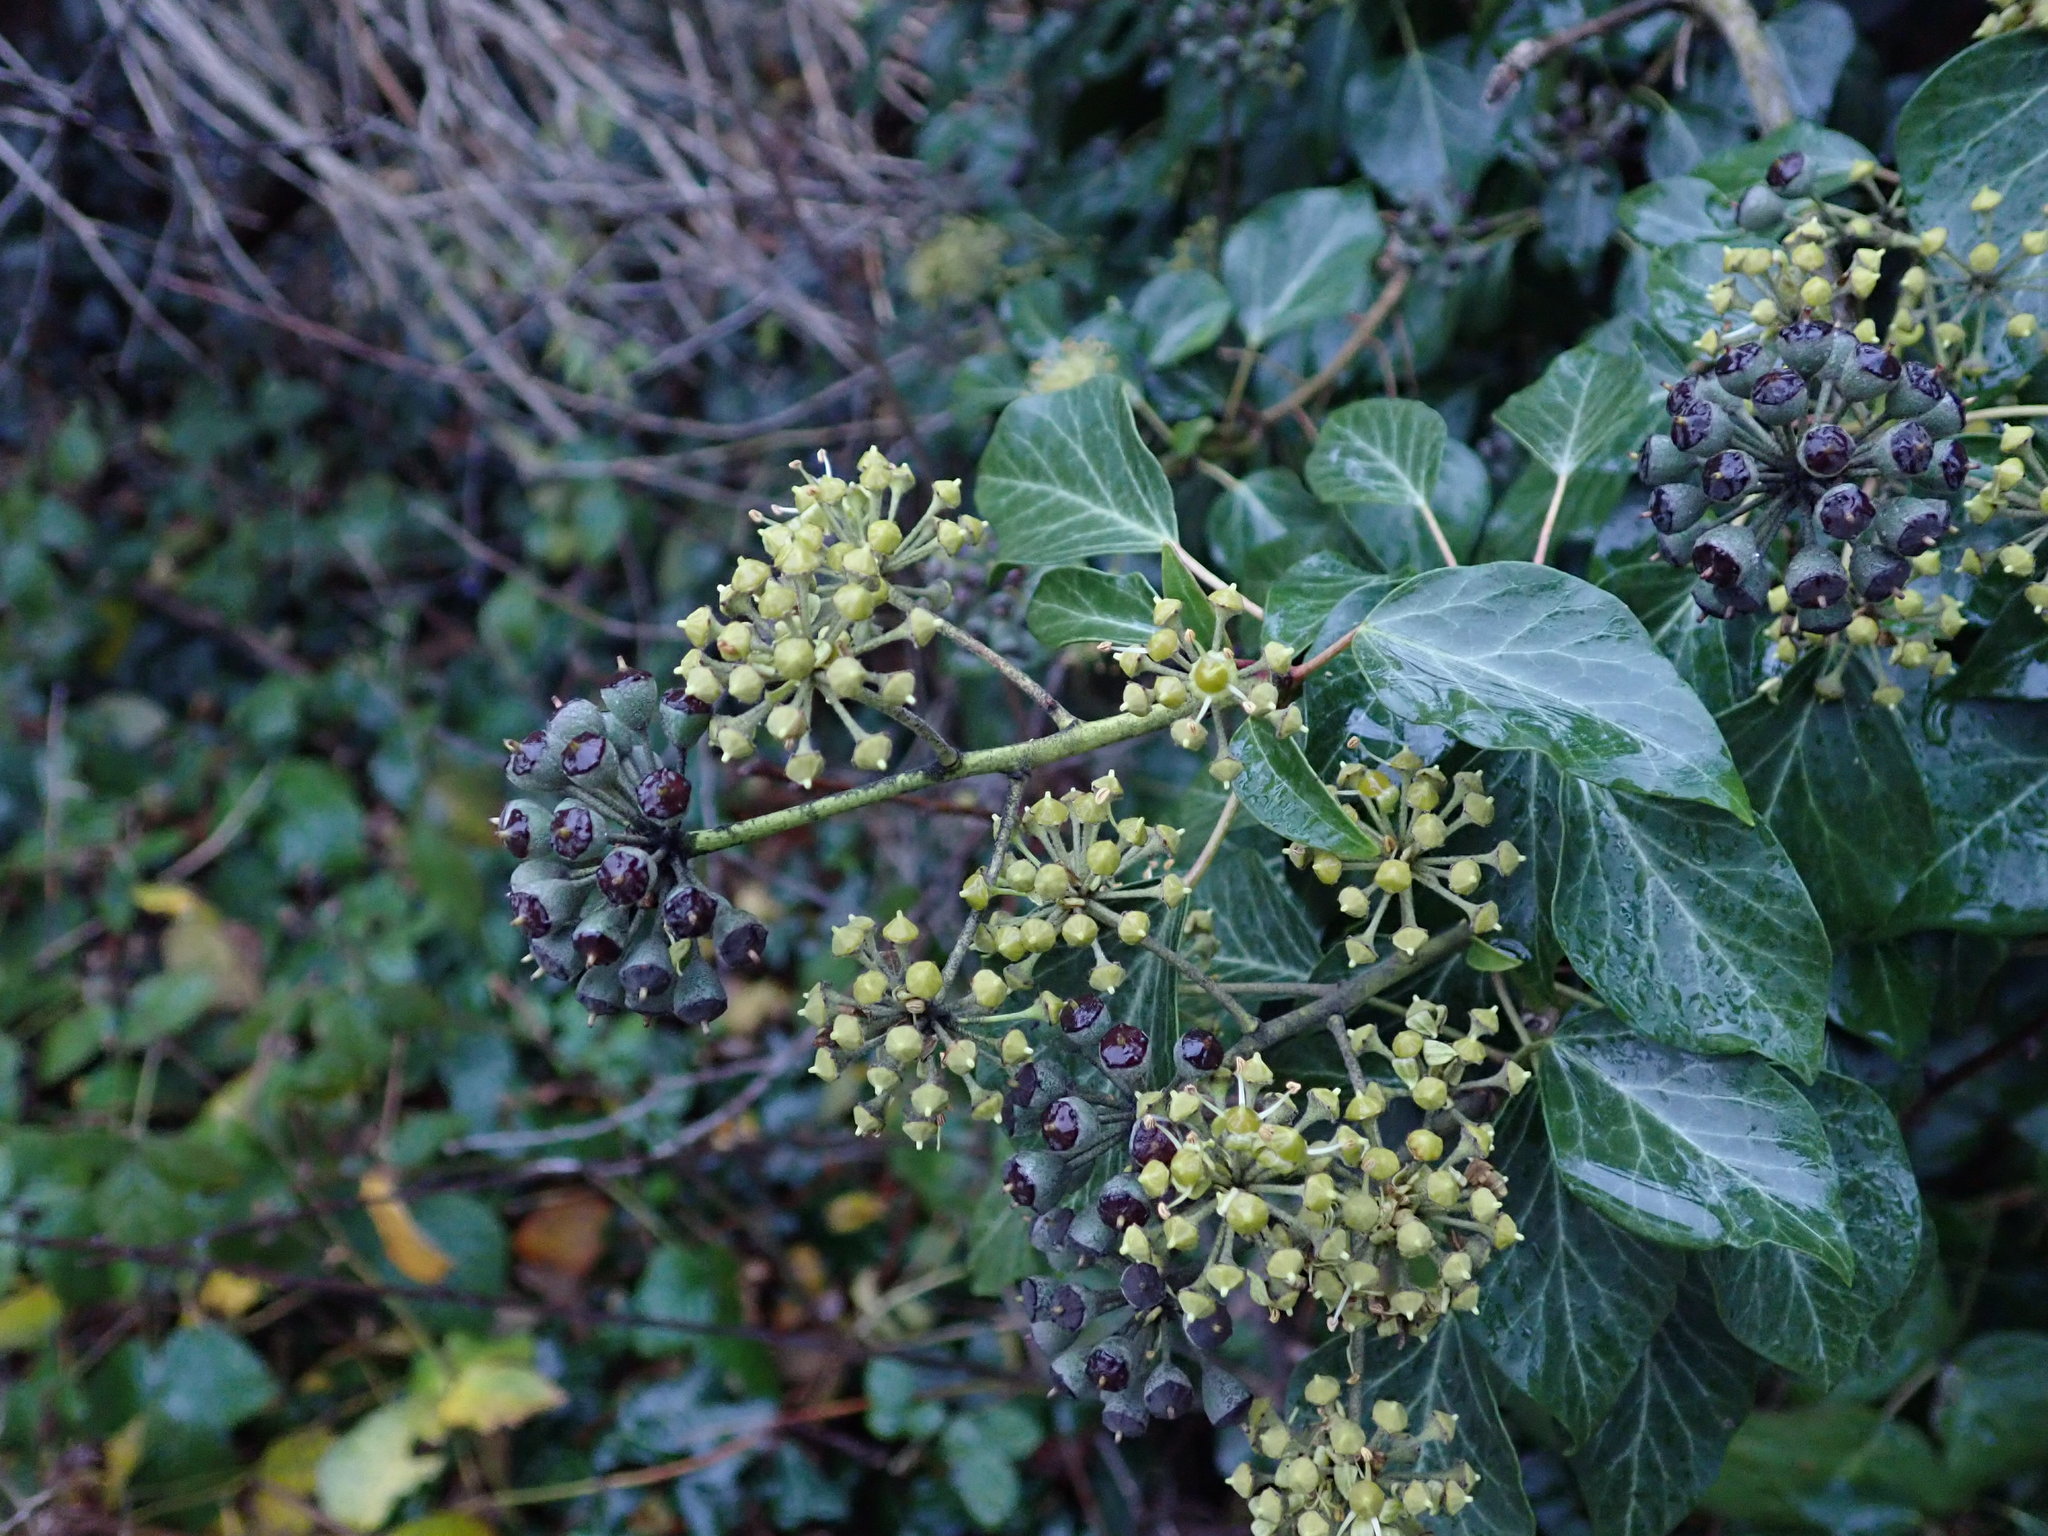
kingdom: Plantae
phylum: Tracheophyta
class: Magnoliopsida
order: Apiales
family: Araliaceae
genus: Hedera
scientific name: Hedera helix
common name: Ivy
